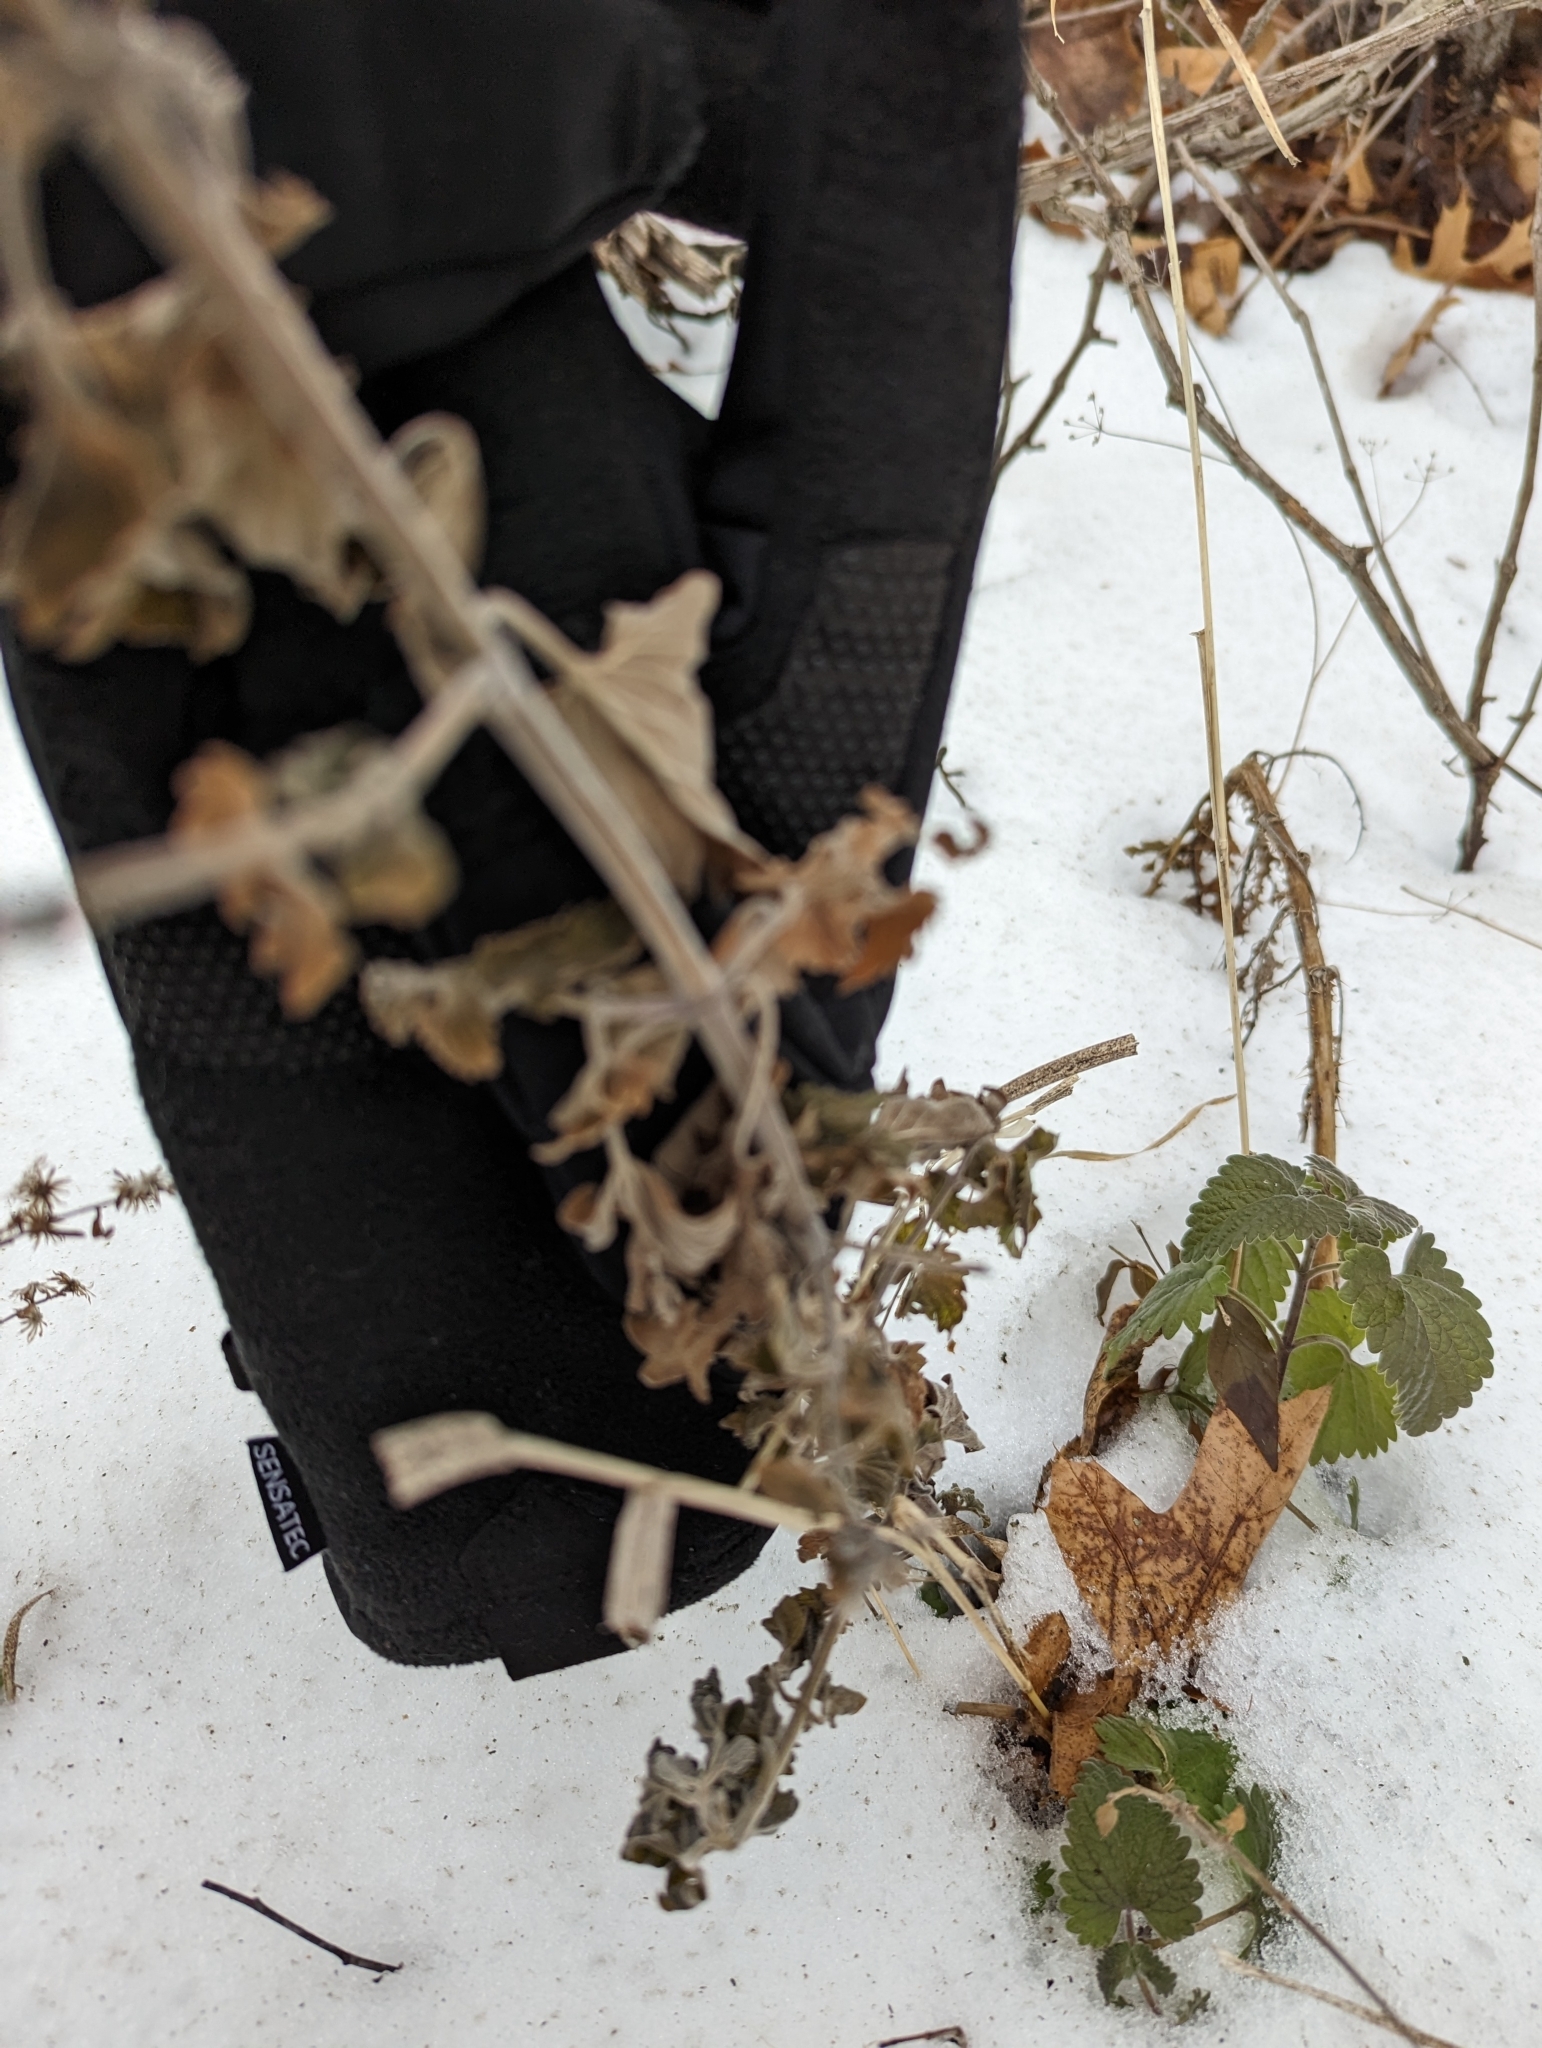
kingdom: Plantae
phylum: Tracheophyta
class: Magnoliopsida
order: Lamiales
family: Lamiaceae
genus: Nepeta
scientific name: Nepeta cataria
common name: Catnip
